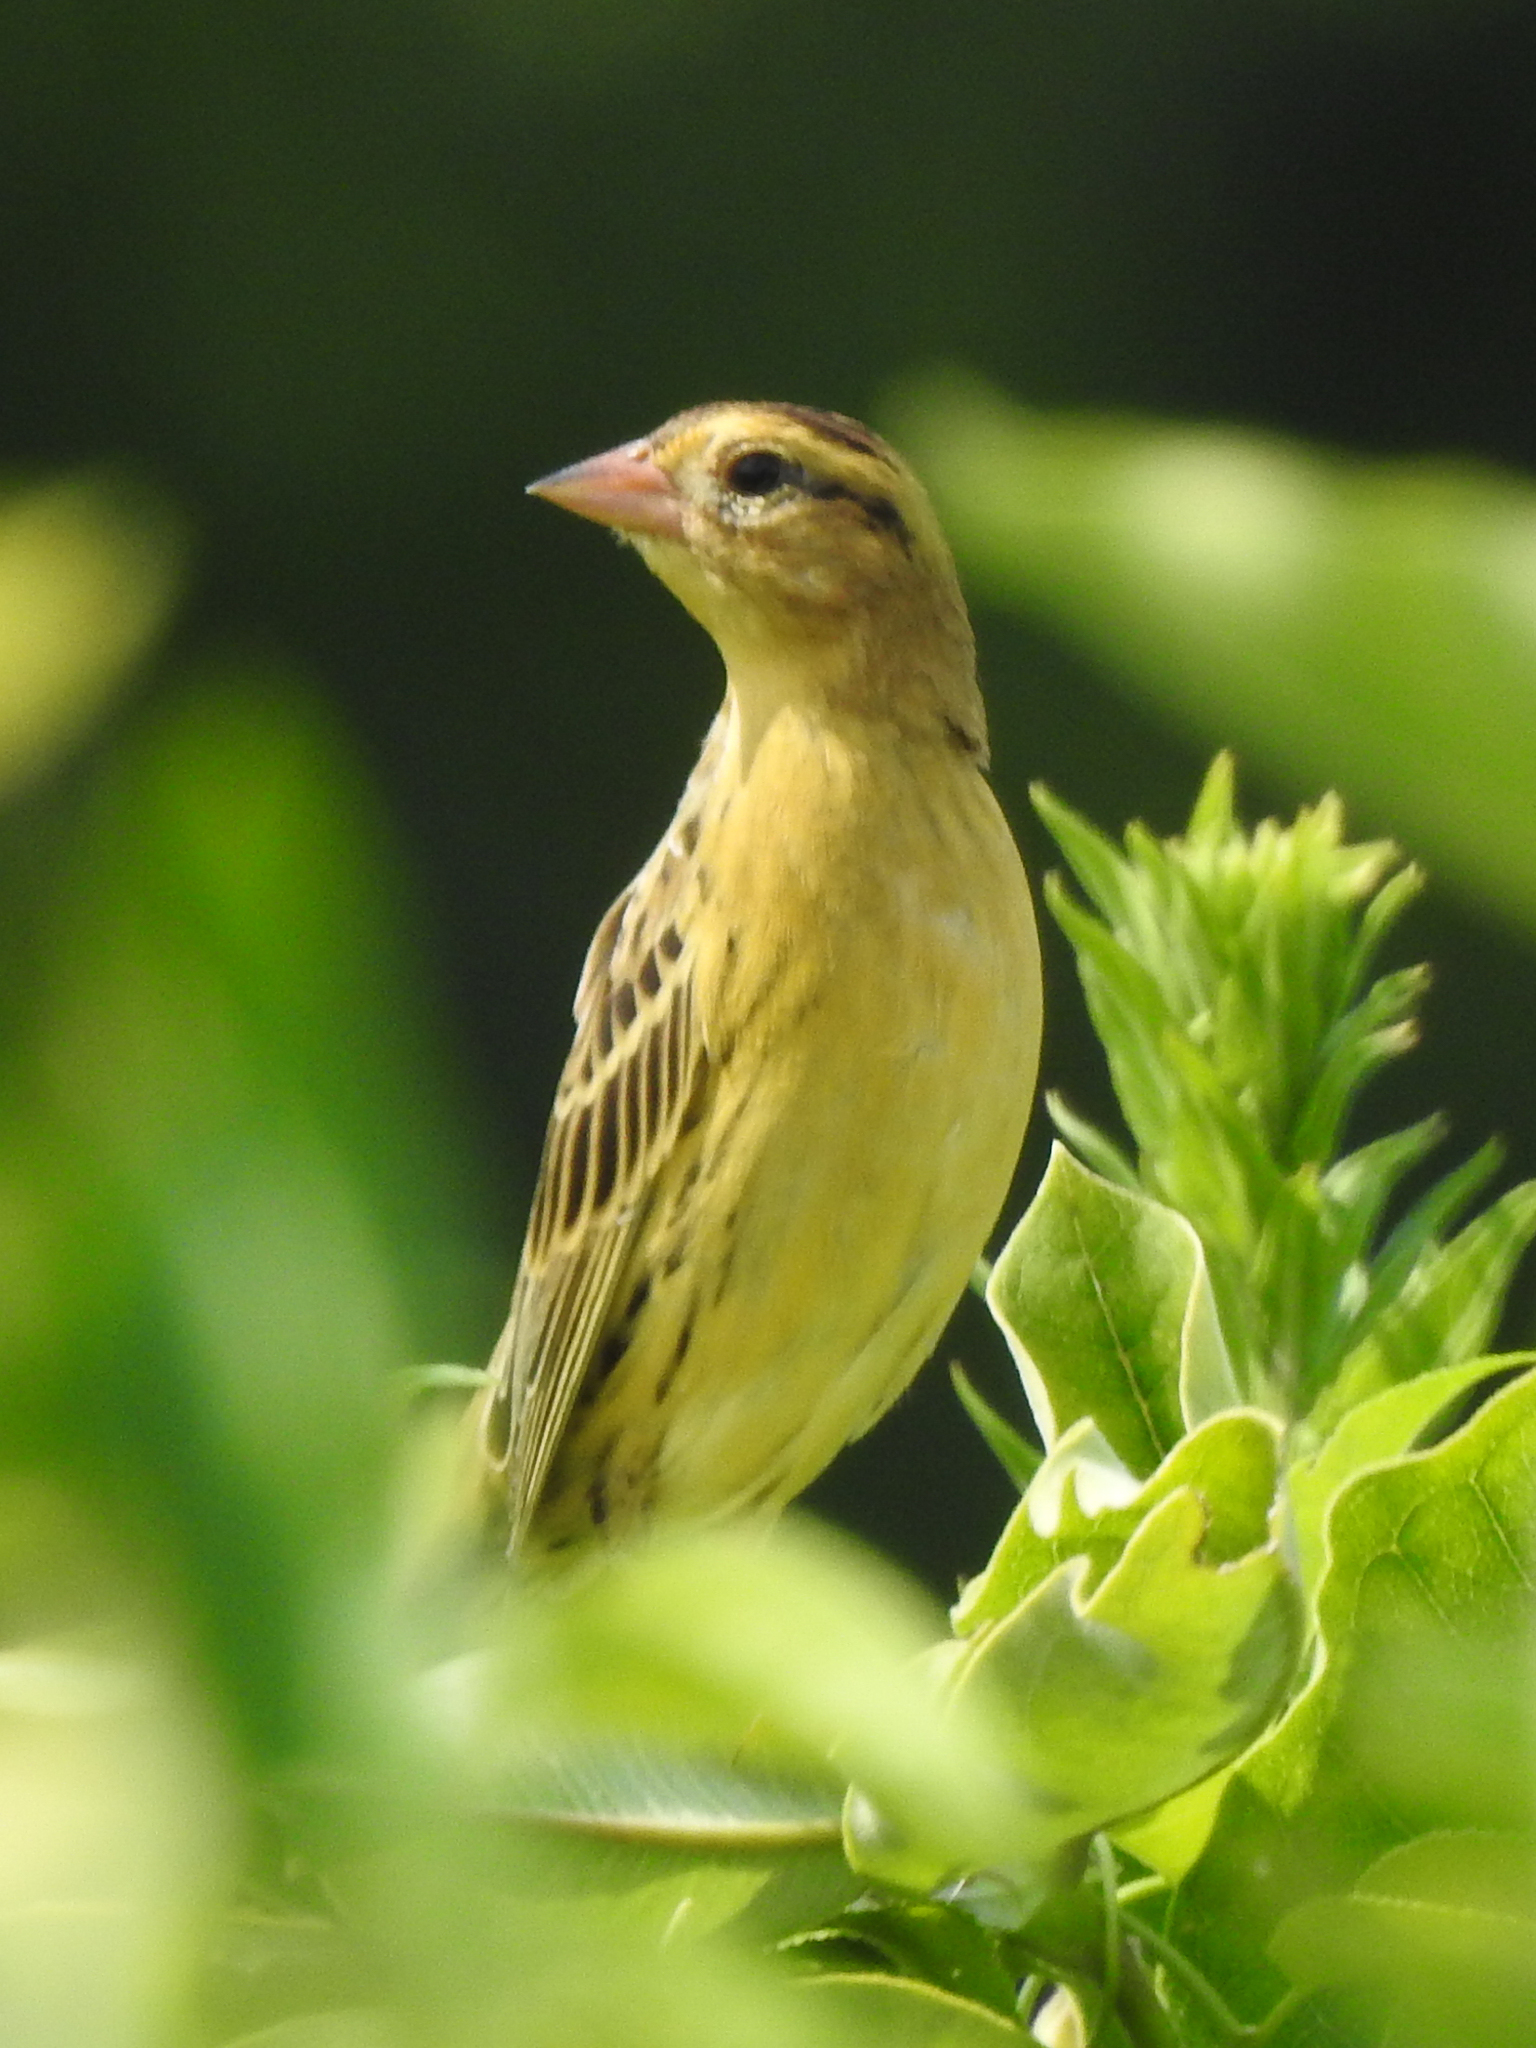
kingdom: Animalia
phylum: Chordata
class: Aves
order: Passeriformes
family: Icteridae
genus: Dolichonyx
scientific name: Dolichonyx oryzivorus
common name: Bobolink
